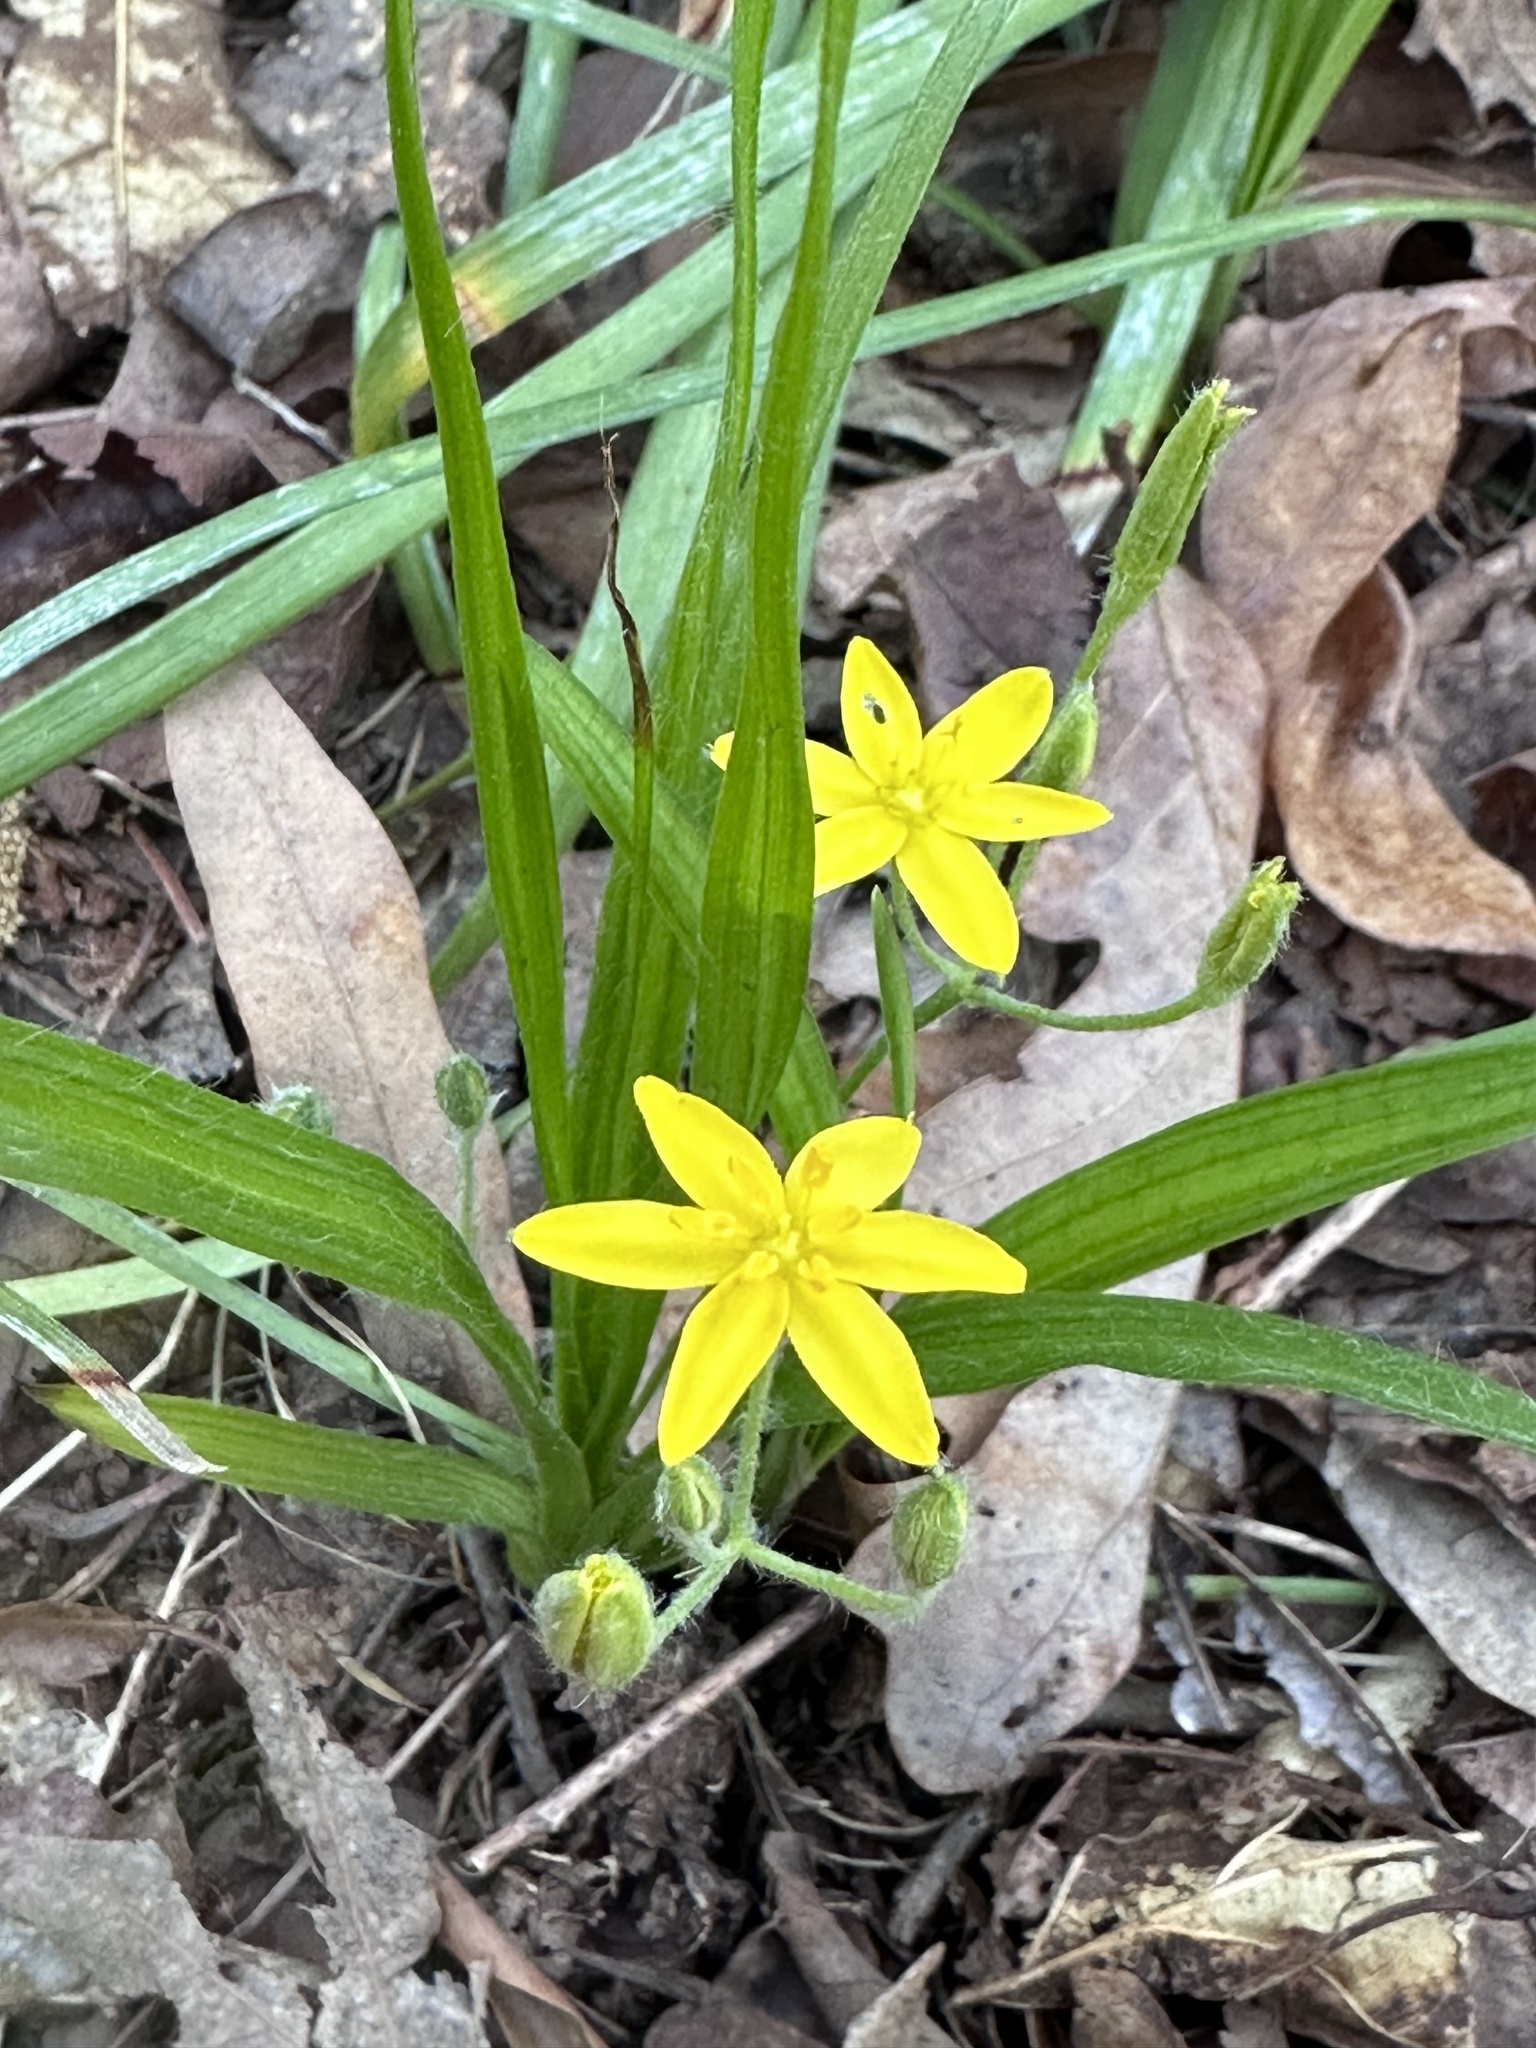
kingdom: Plantae
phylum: Tracheophyta
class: Liliopsida
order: Asparagales
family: Hypoxidaceae
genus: Hypoxis
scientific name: Hypoxis hirsuta
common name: Common goldstar
